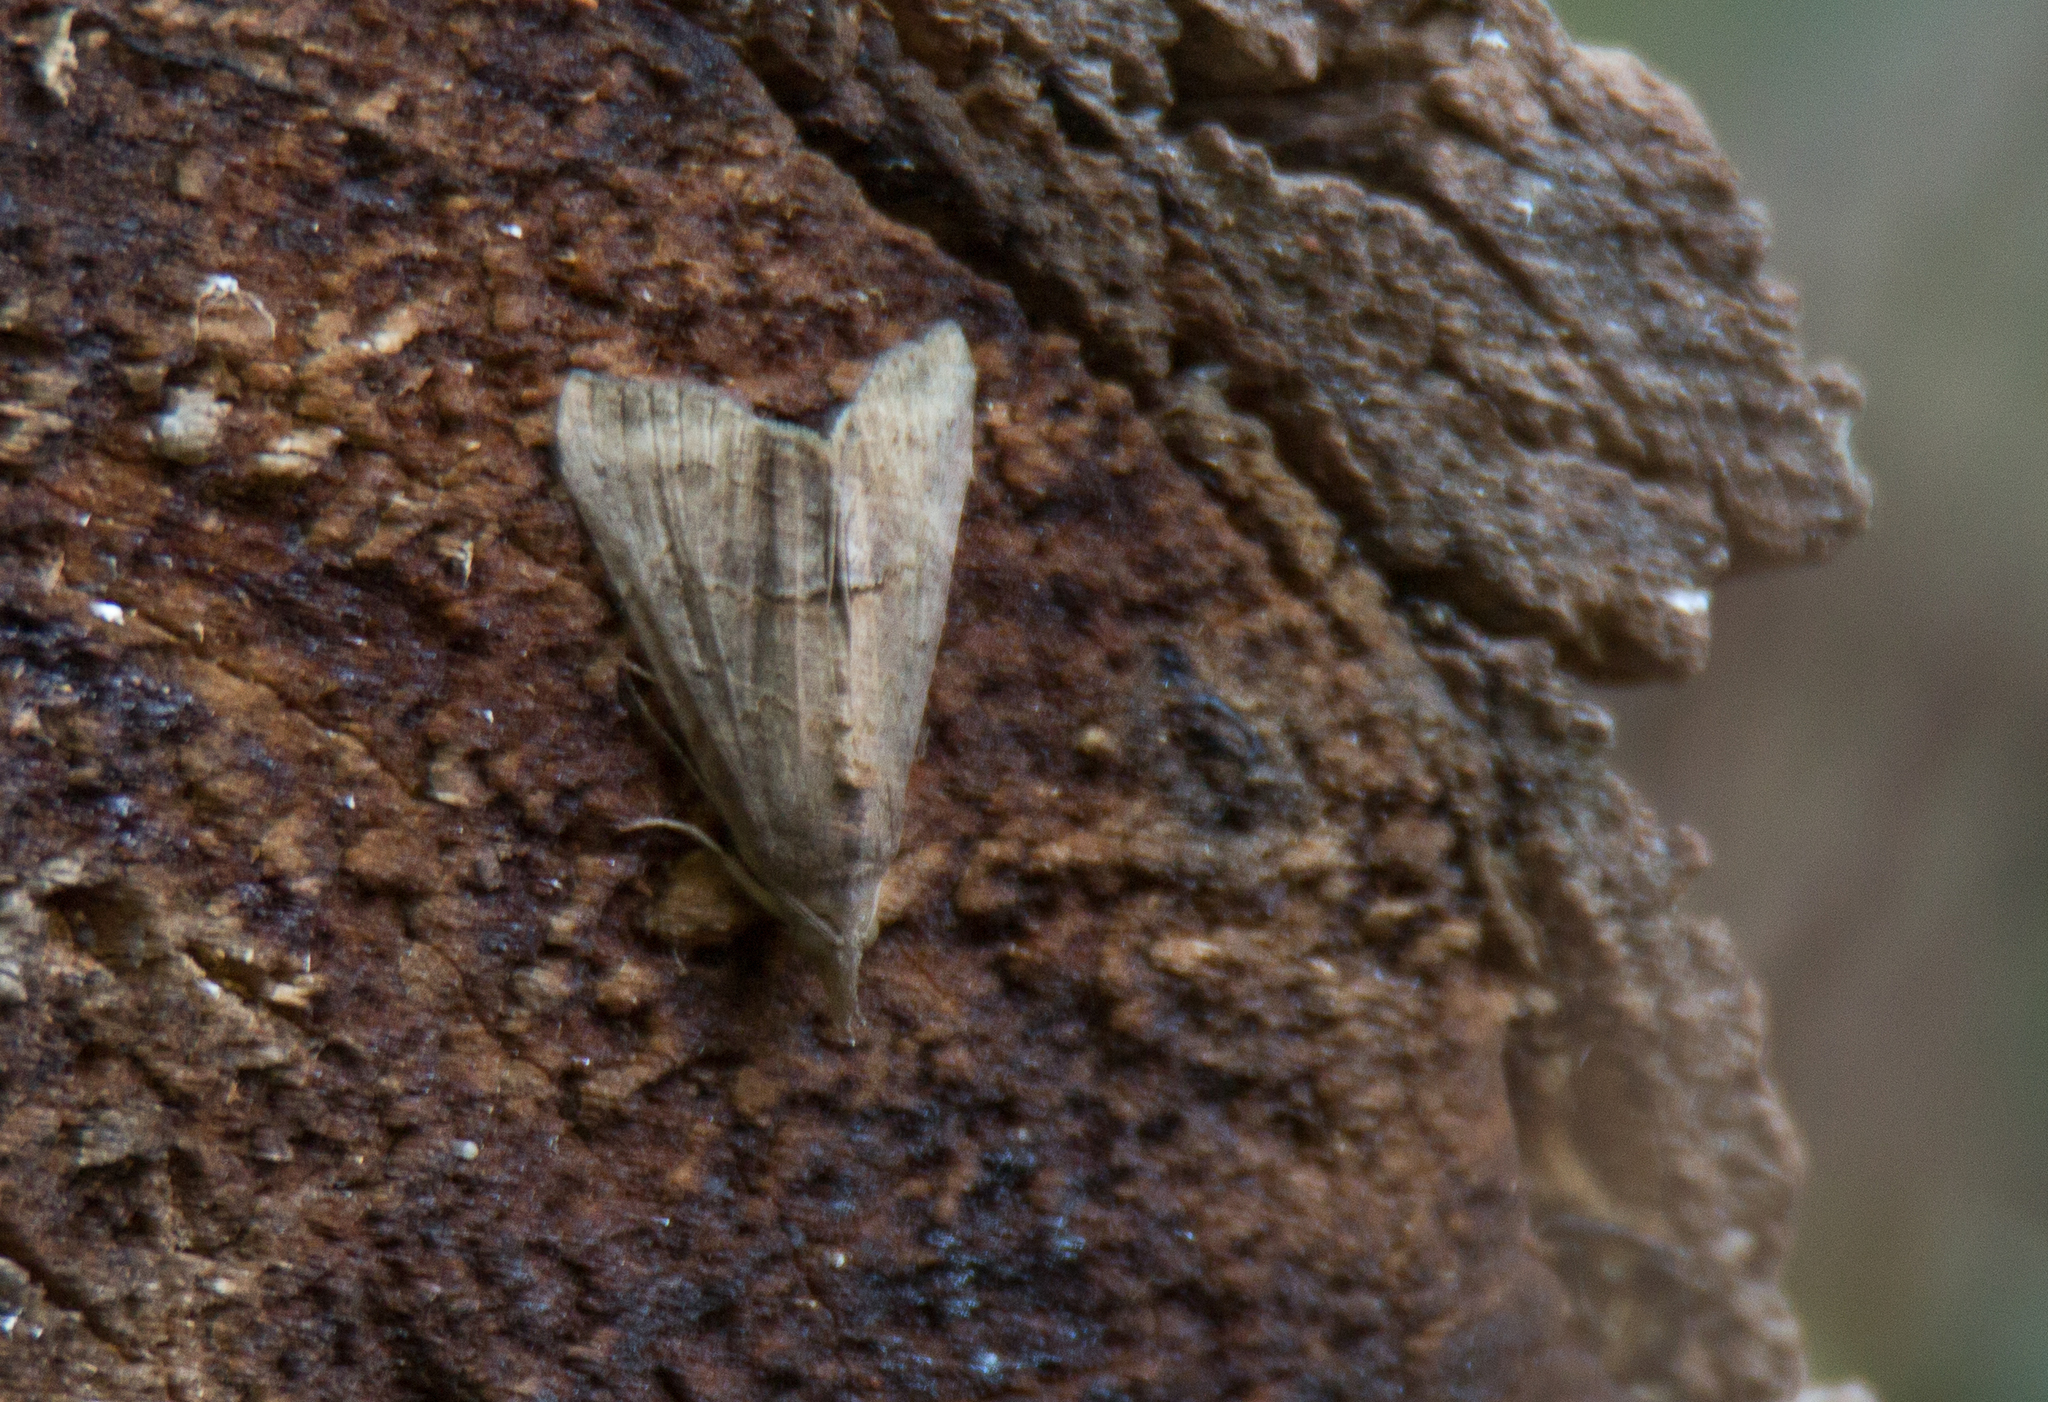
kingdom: Animalia
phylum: Arthropoda
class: Insecta
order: Lepidoptera
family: Erebidae
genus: Hypena
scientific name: Hypena scabra
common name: Green cloverworm
